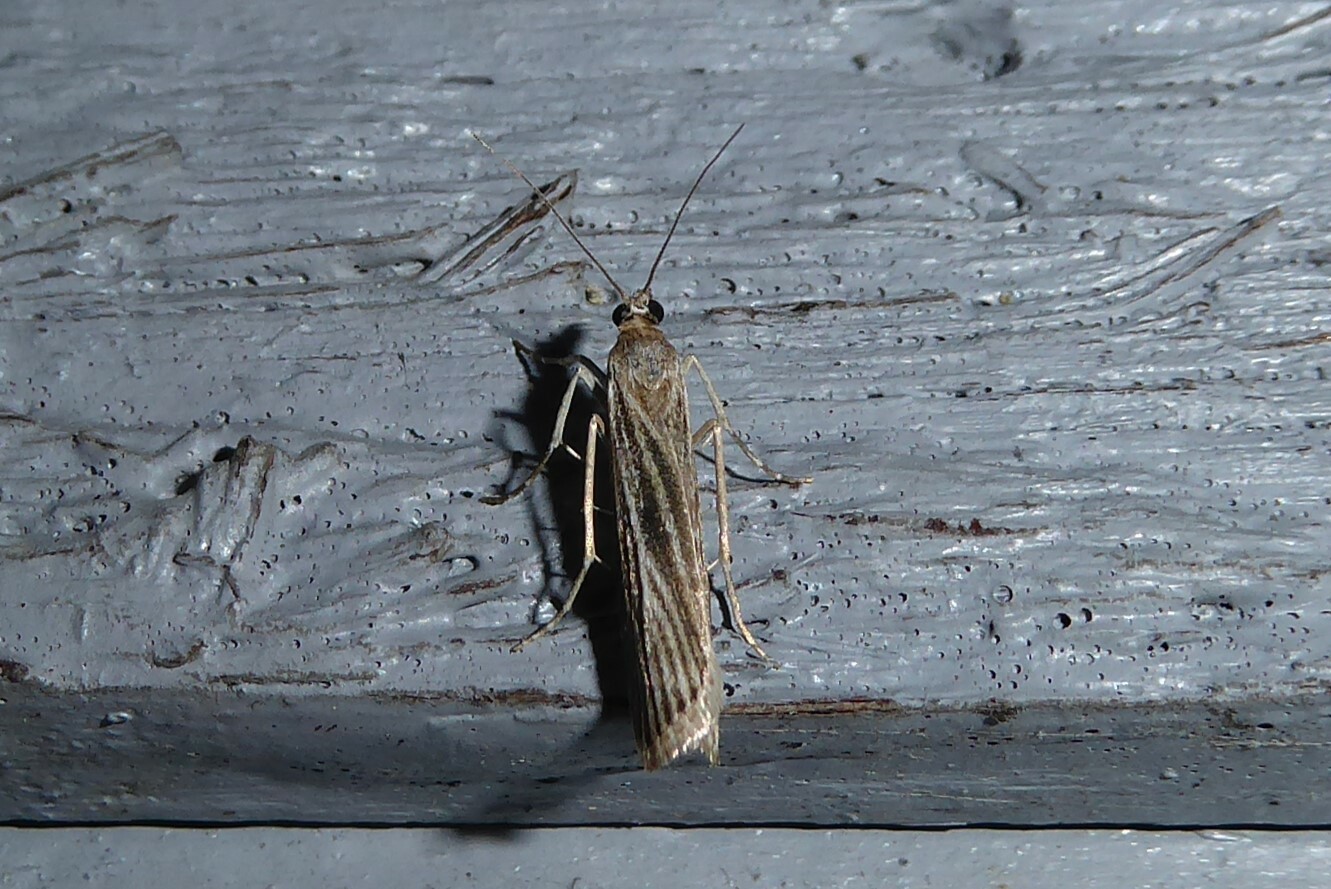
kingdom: Animalia
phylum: Arthropoda
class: Insecta
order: Lepidoptera
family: Crambidae
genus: Eudonia
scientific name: Eudonia atmogramma
